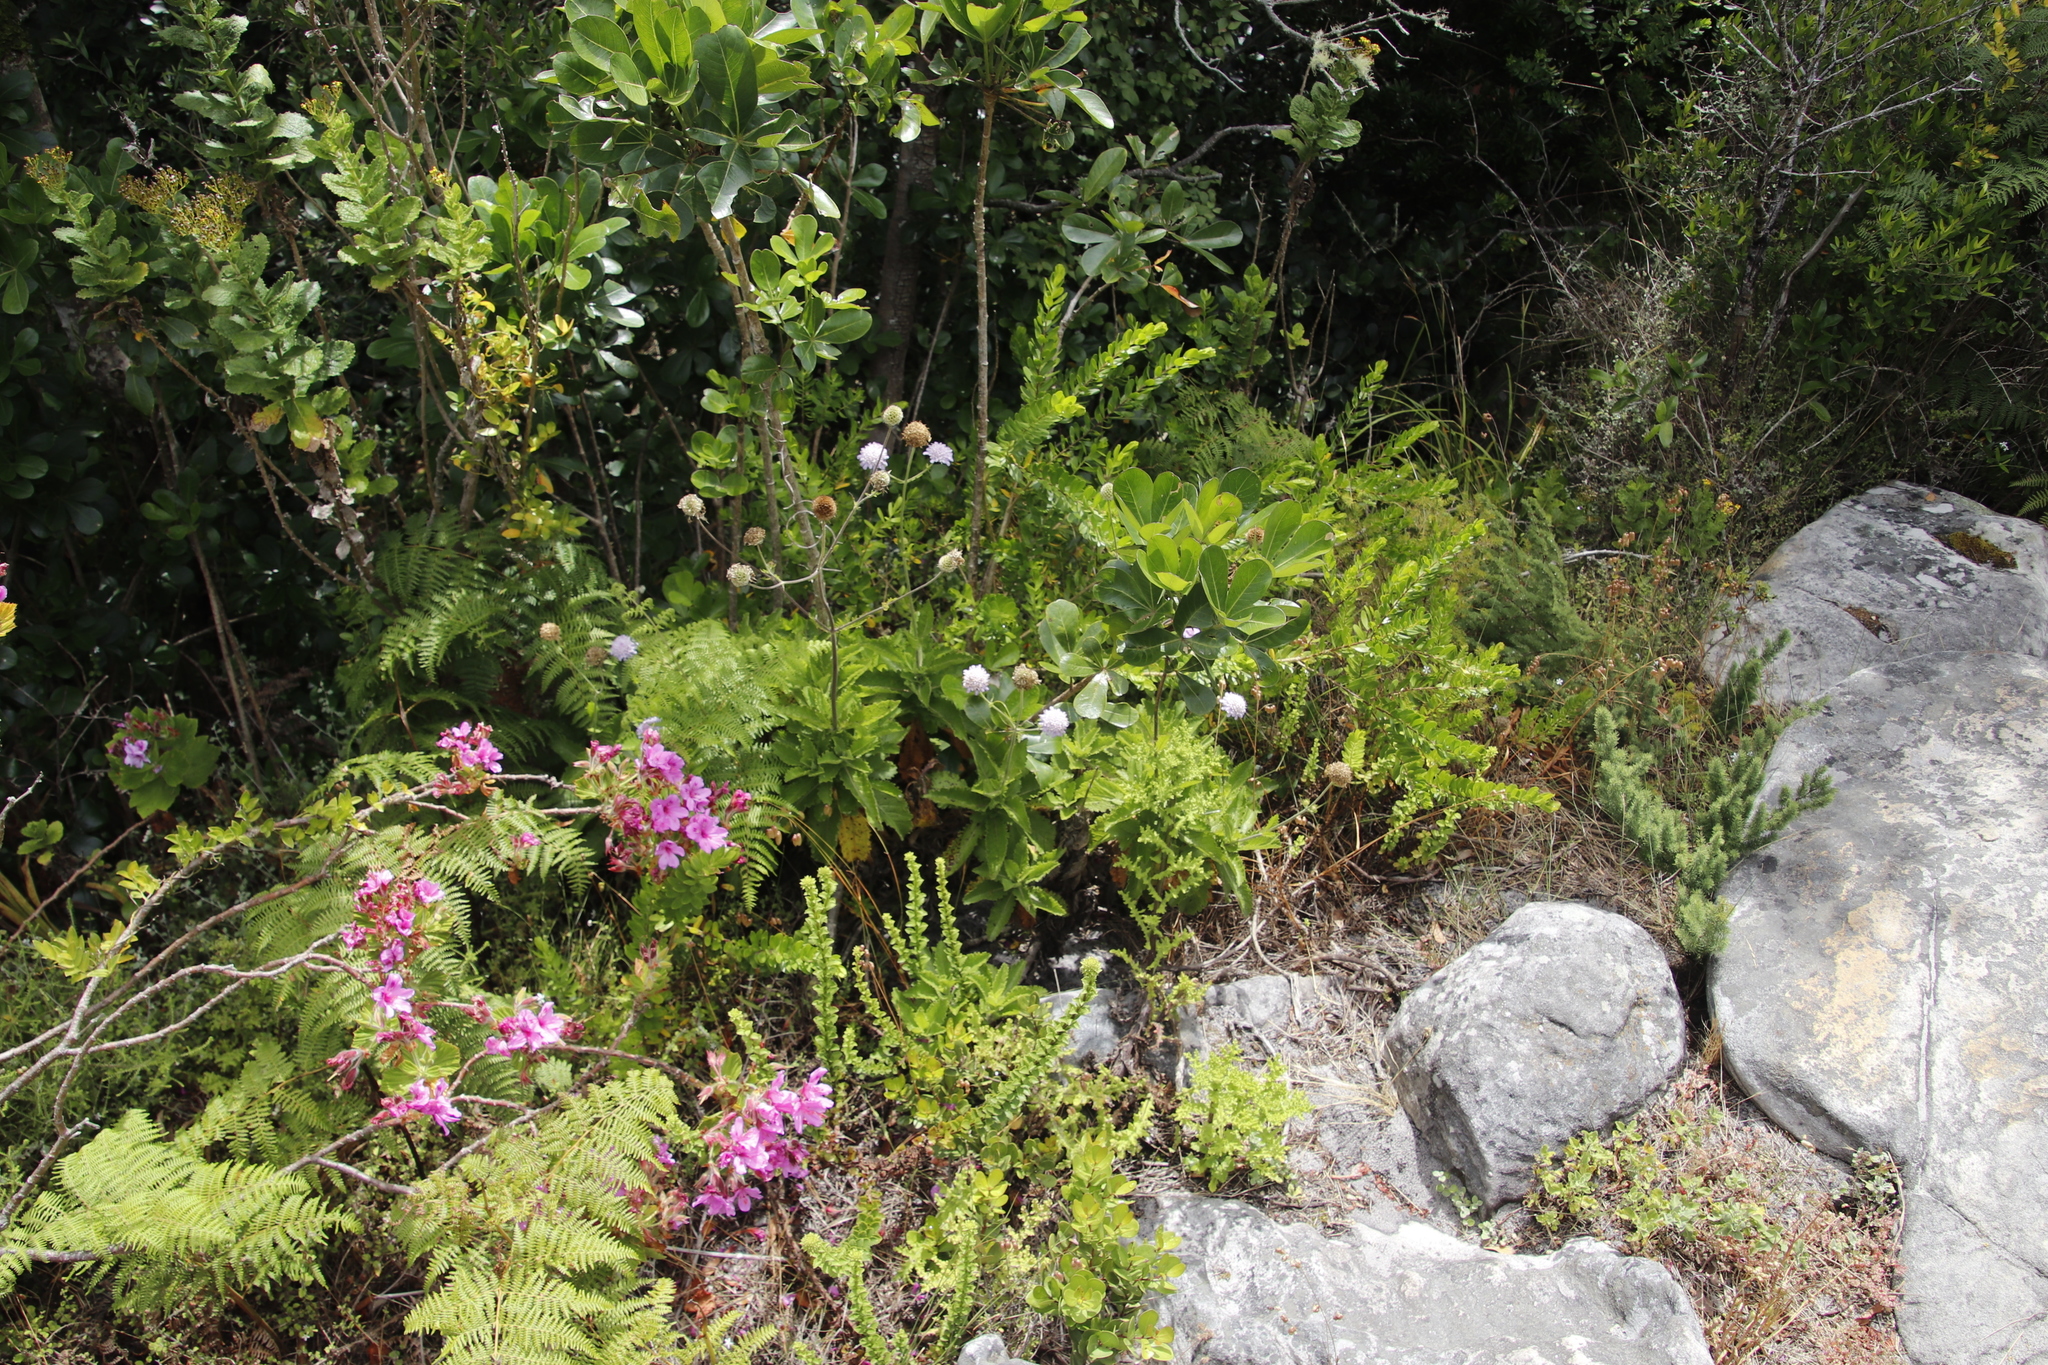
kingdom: Plantae
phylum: Tracheophyta
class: Magnoliopsida
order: Dipsacales
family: Caprifoliaceae
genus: Scabiosa
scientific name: Scabiosa africana
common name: Cape scabious
